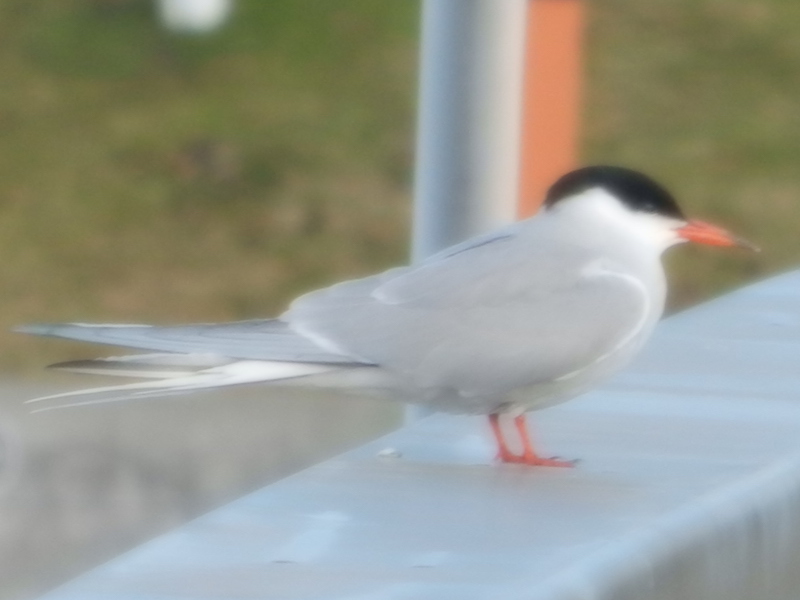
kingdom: Animalia
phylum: Chordata
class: Aves
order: Charadriiformes
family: Laridae
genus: Sterna
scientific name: Sterna hirundo
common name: Common tern
